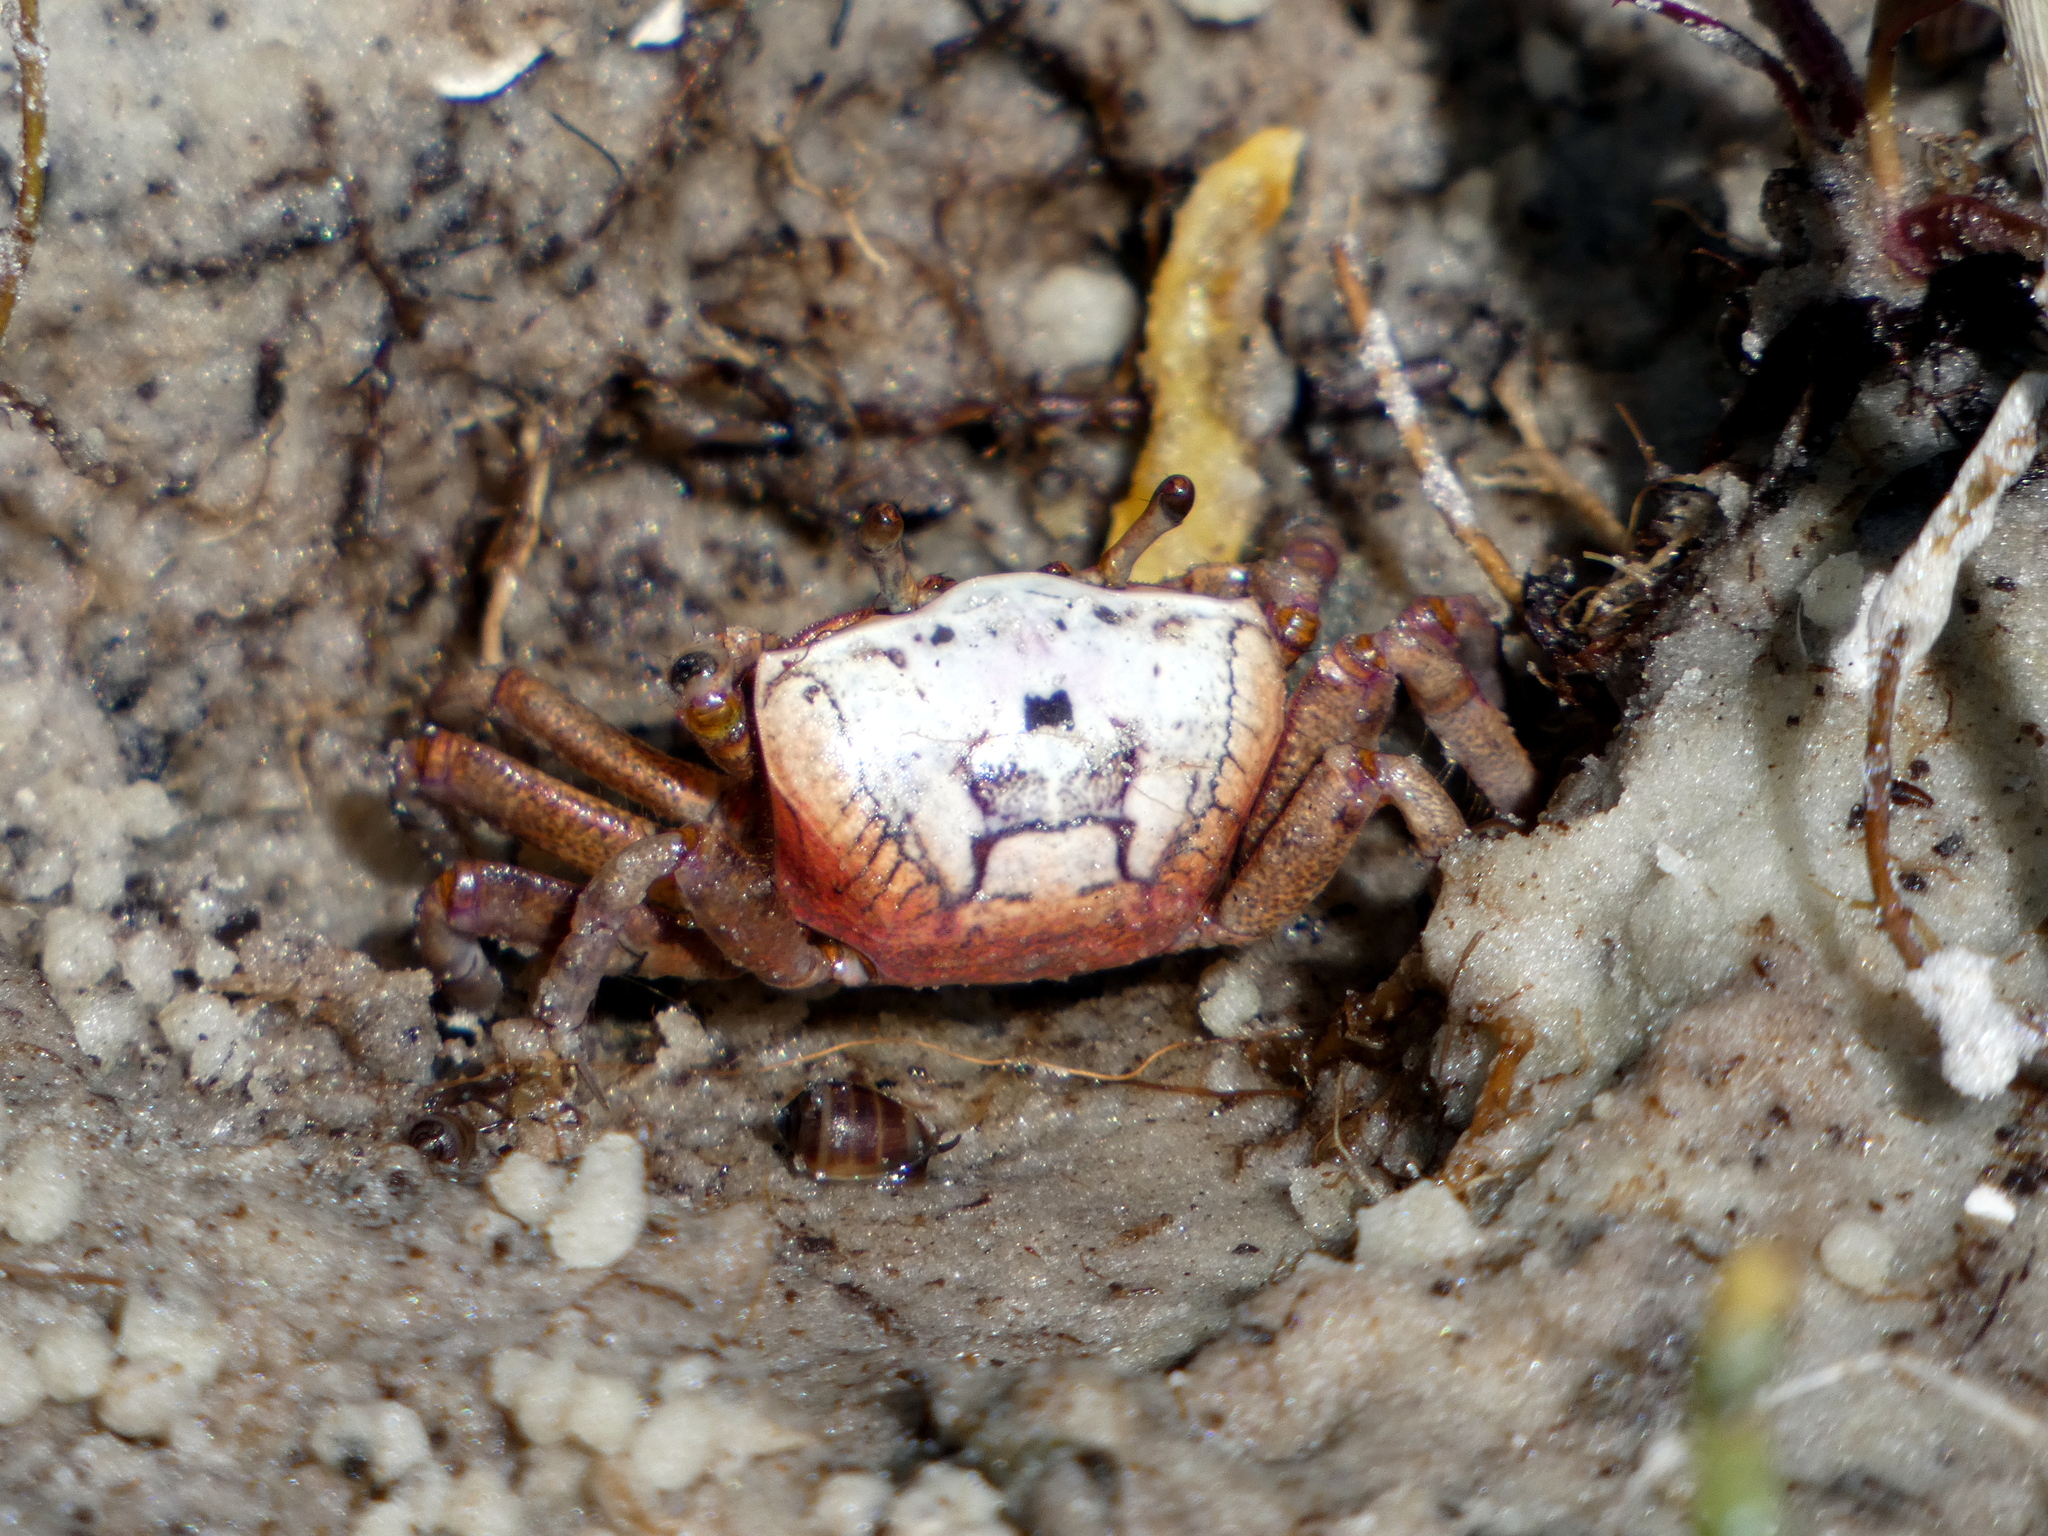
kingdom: Animalia
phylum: Arthropoda
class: Malacostraca
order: Decapoda
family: Ocypodidae
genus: Leptuca
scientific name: Leptuca pugilator
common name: Atlantic sand fiddler crab
